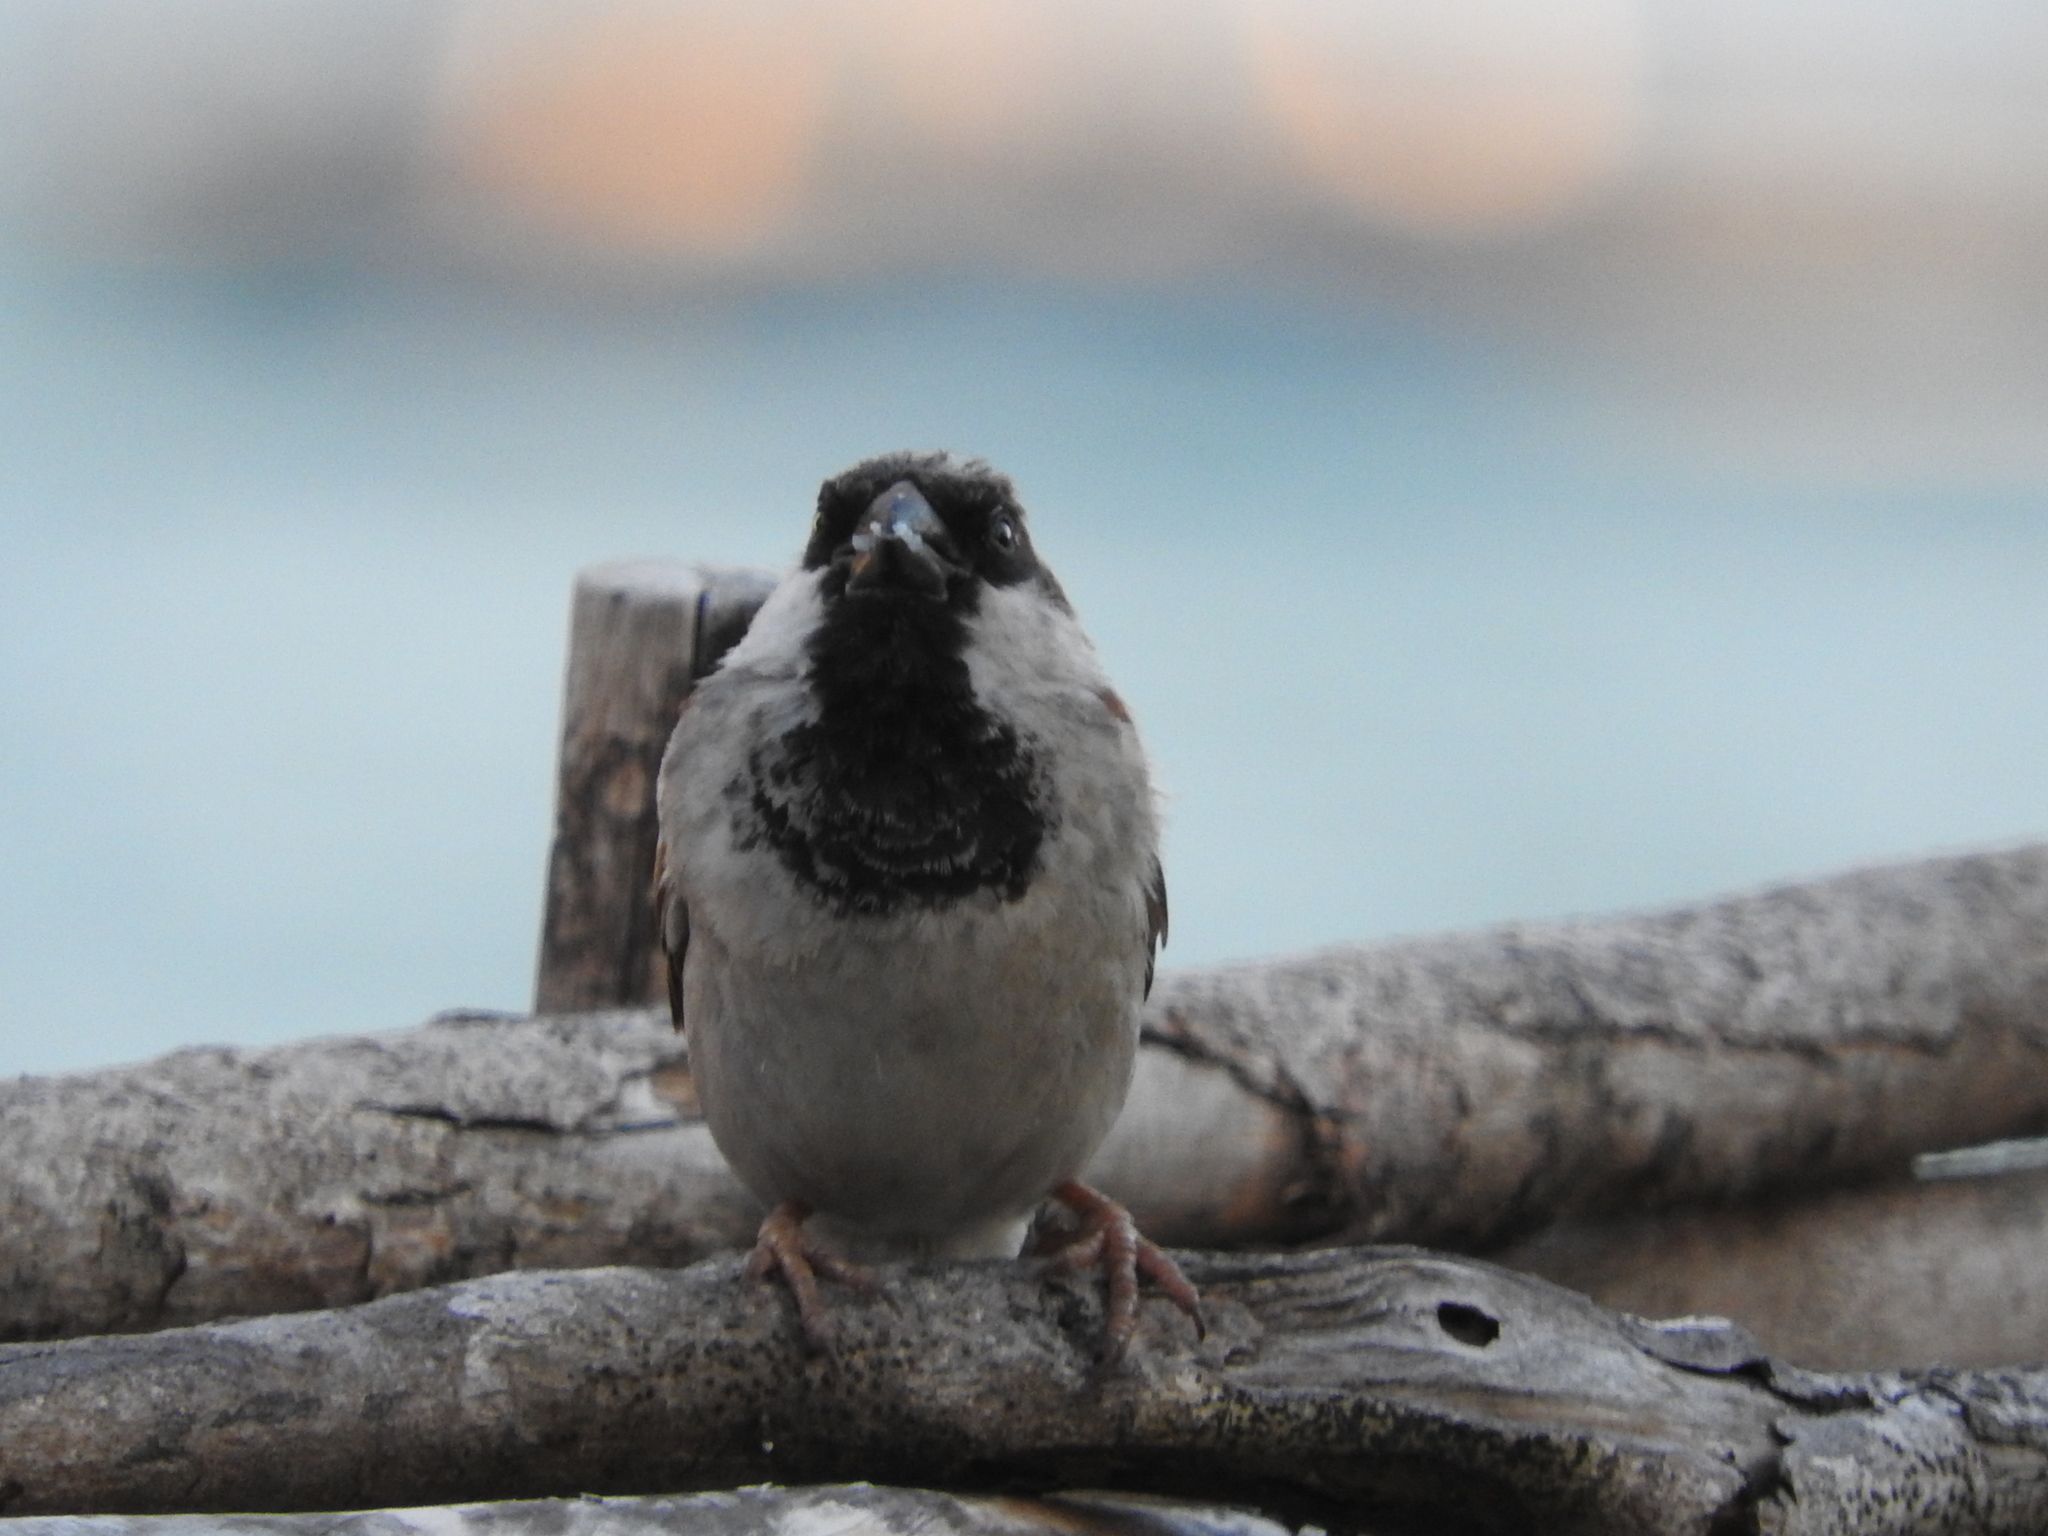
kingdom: Animalia
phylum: Chordata
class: Aves
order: Passeriformes
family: Passeridae
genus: Passer
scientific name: Passer domesticus
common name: House sparrow
